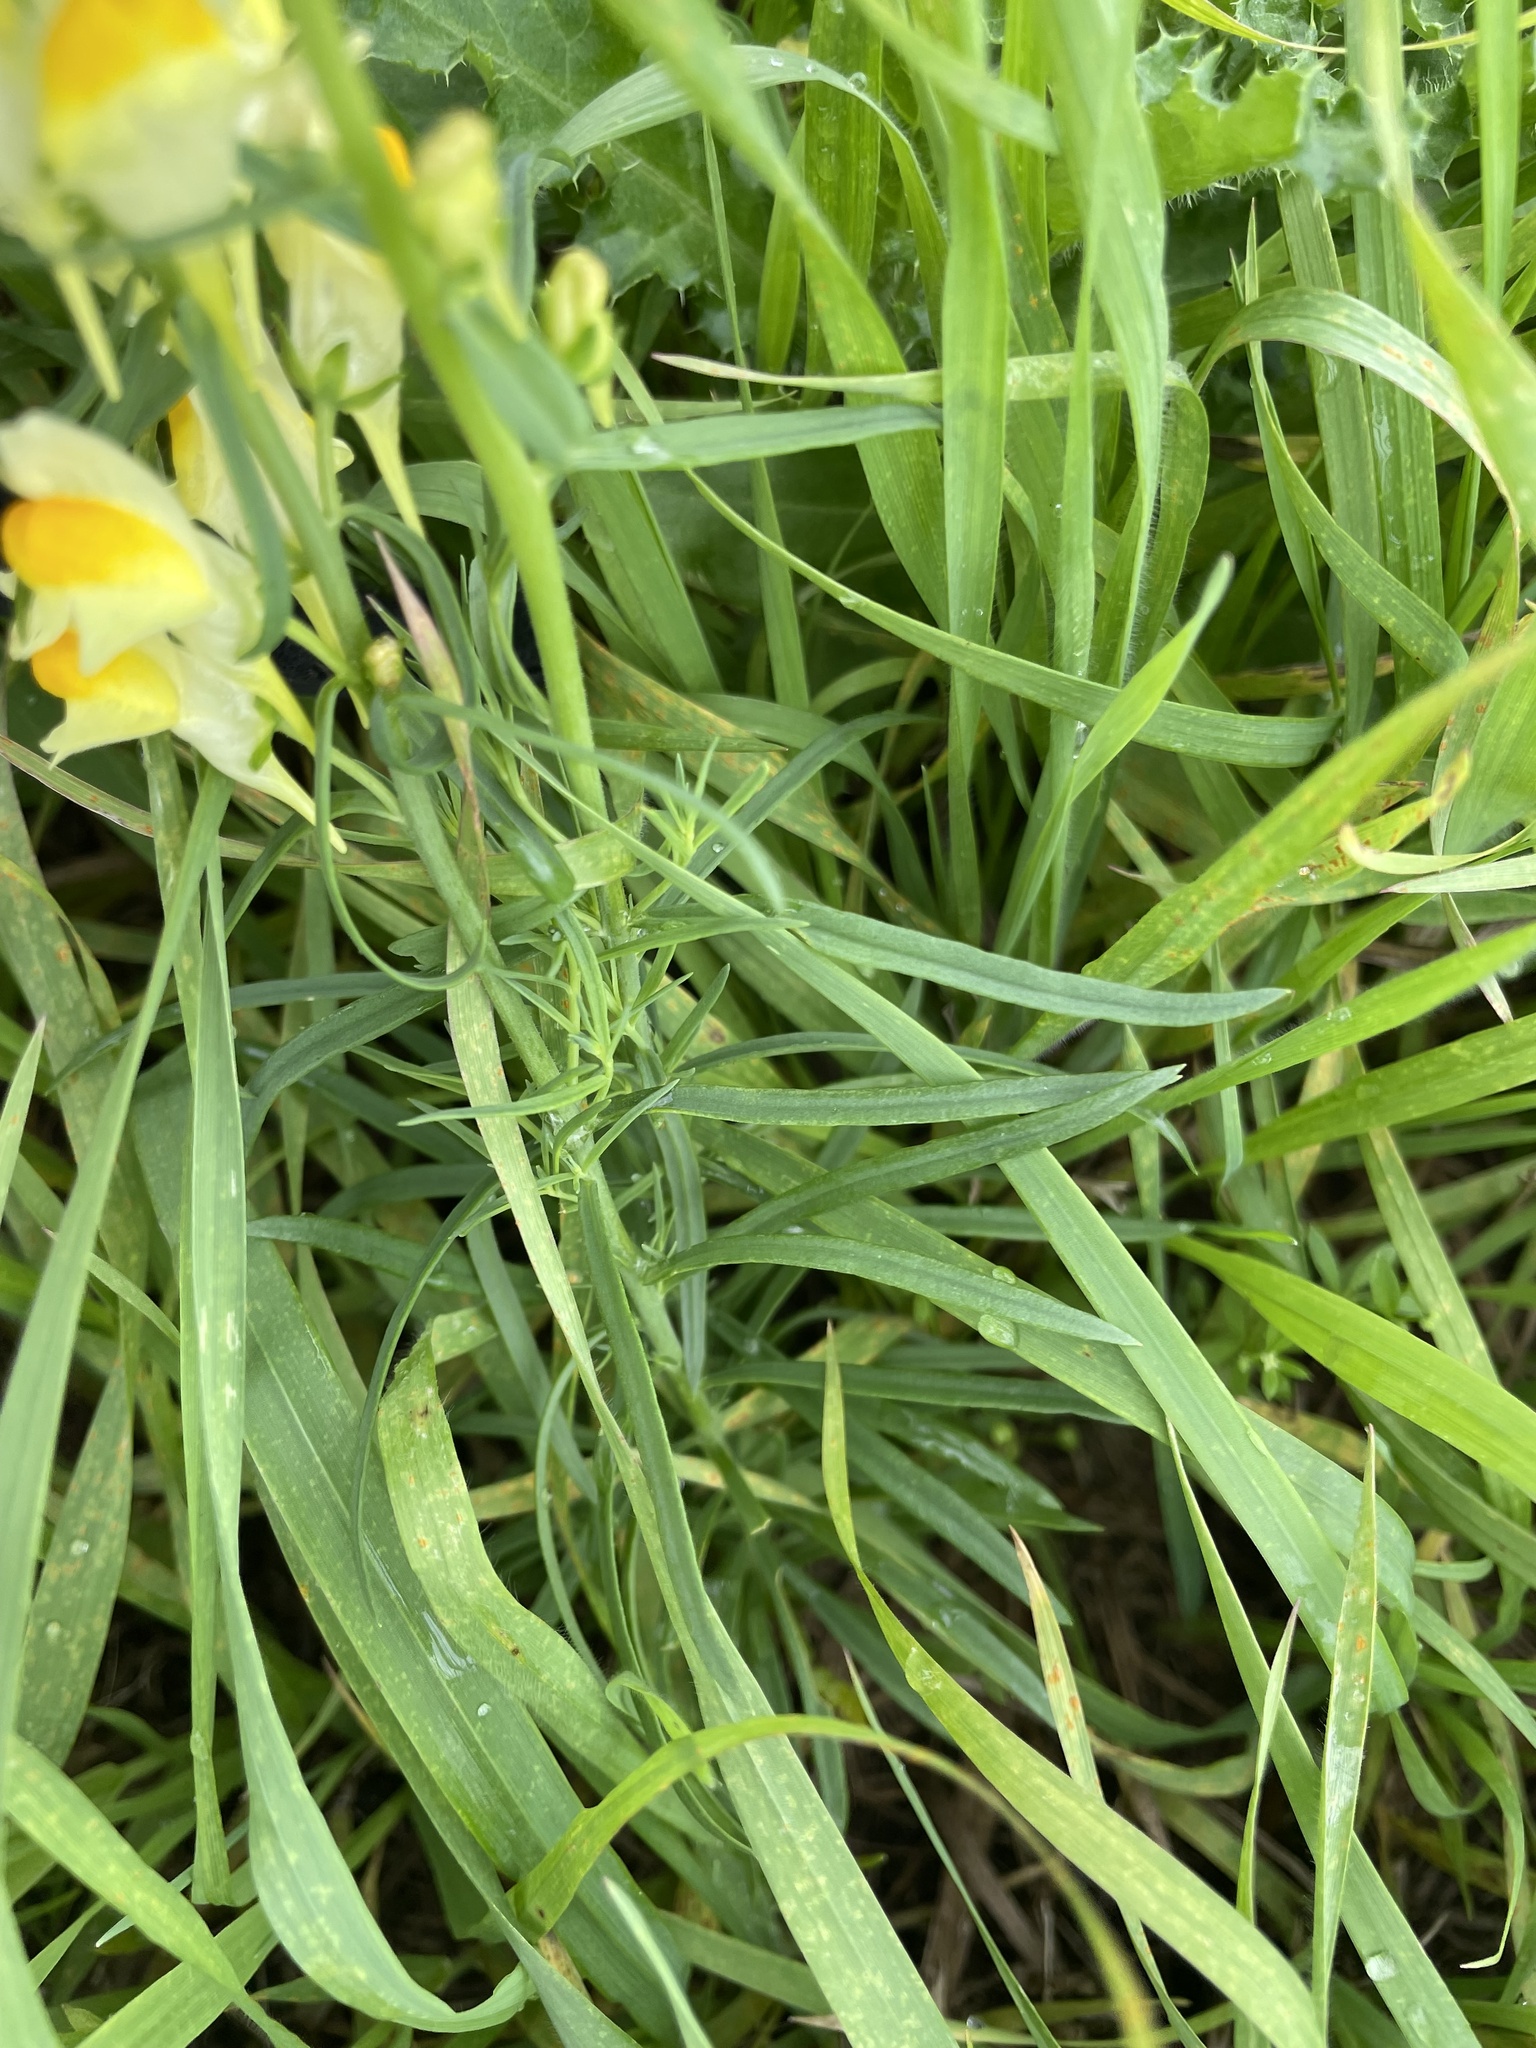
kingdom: Plantae
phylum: Tracheophyta
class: Magnoliopsida
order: Lamiales
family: Plantaginaceae
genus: Linaria
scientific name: Linaria vulgaris
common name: Butter and eggs
